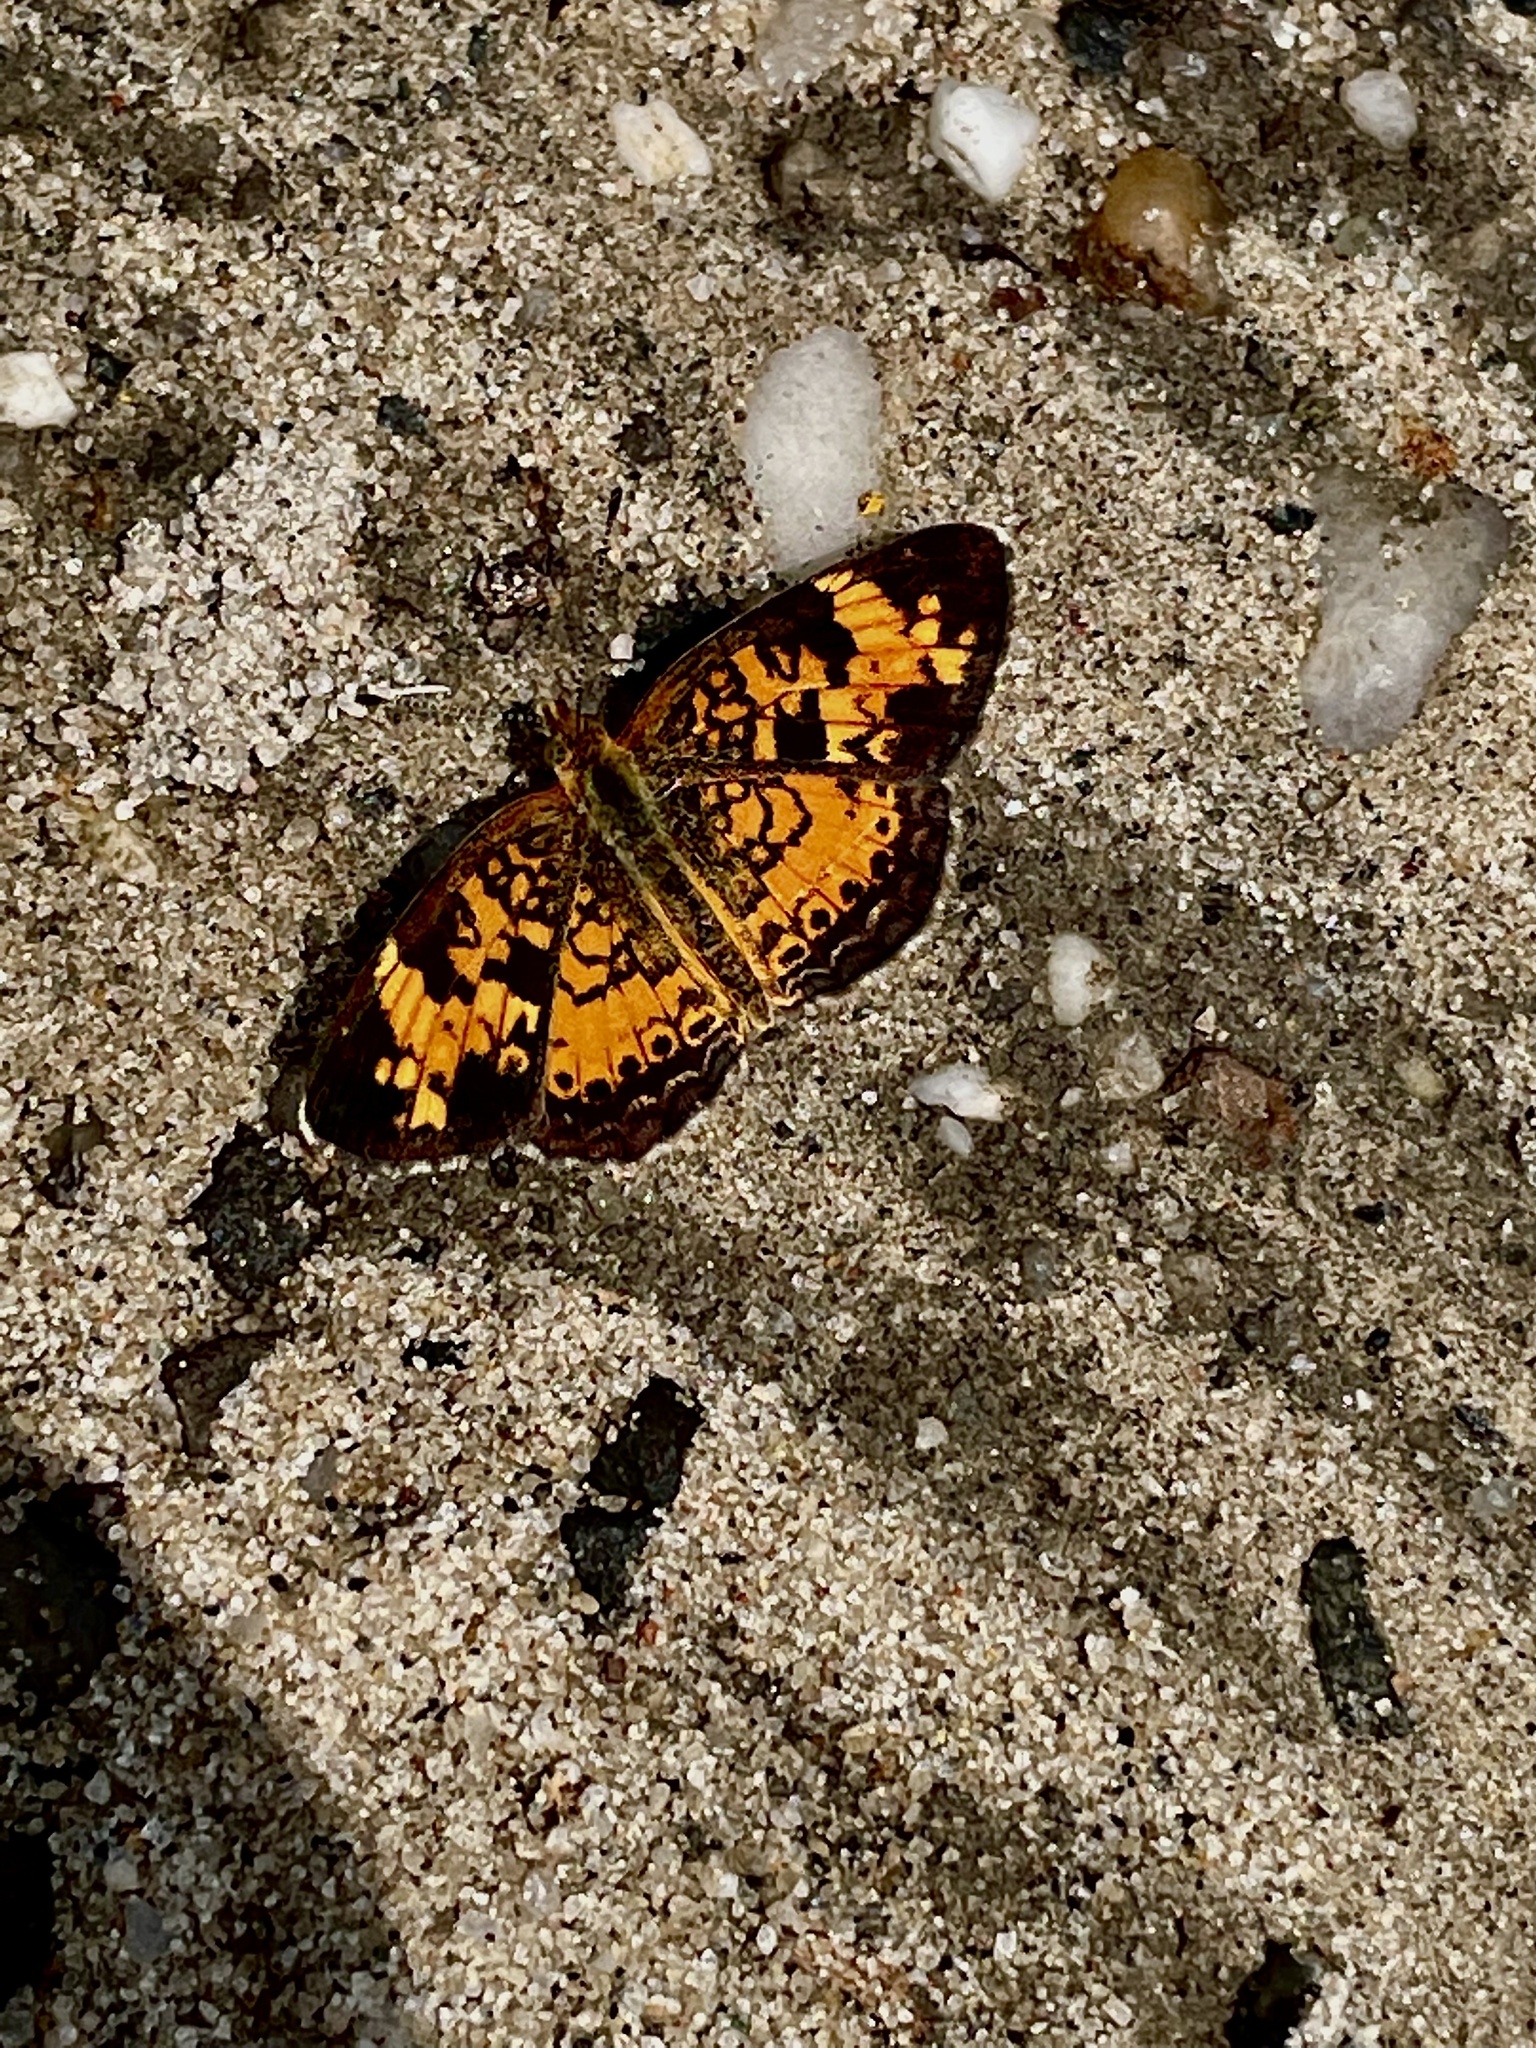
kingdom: Animalia
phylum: Arthropoda
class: Insecta
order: Lepidoptera
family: Nymphalidae
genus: Phyciodes
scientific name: Phyciodes tharos
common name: Pearl crescent
